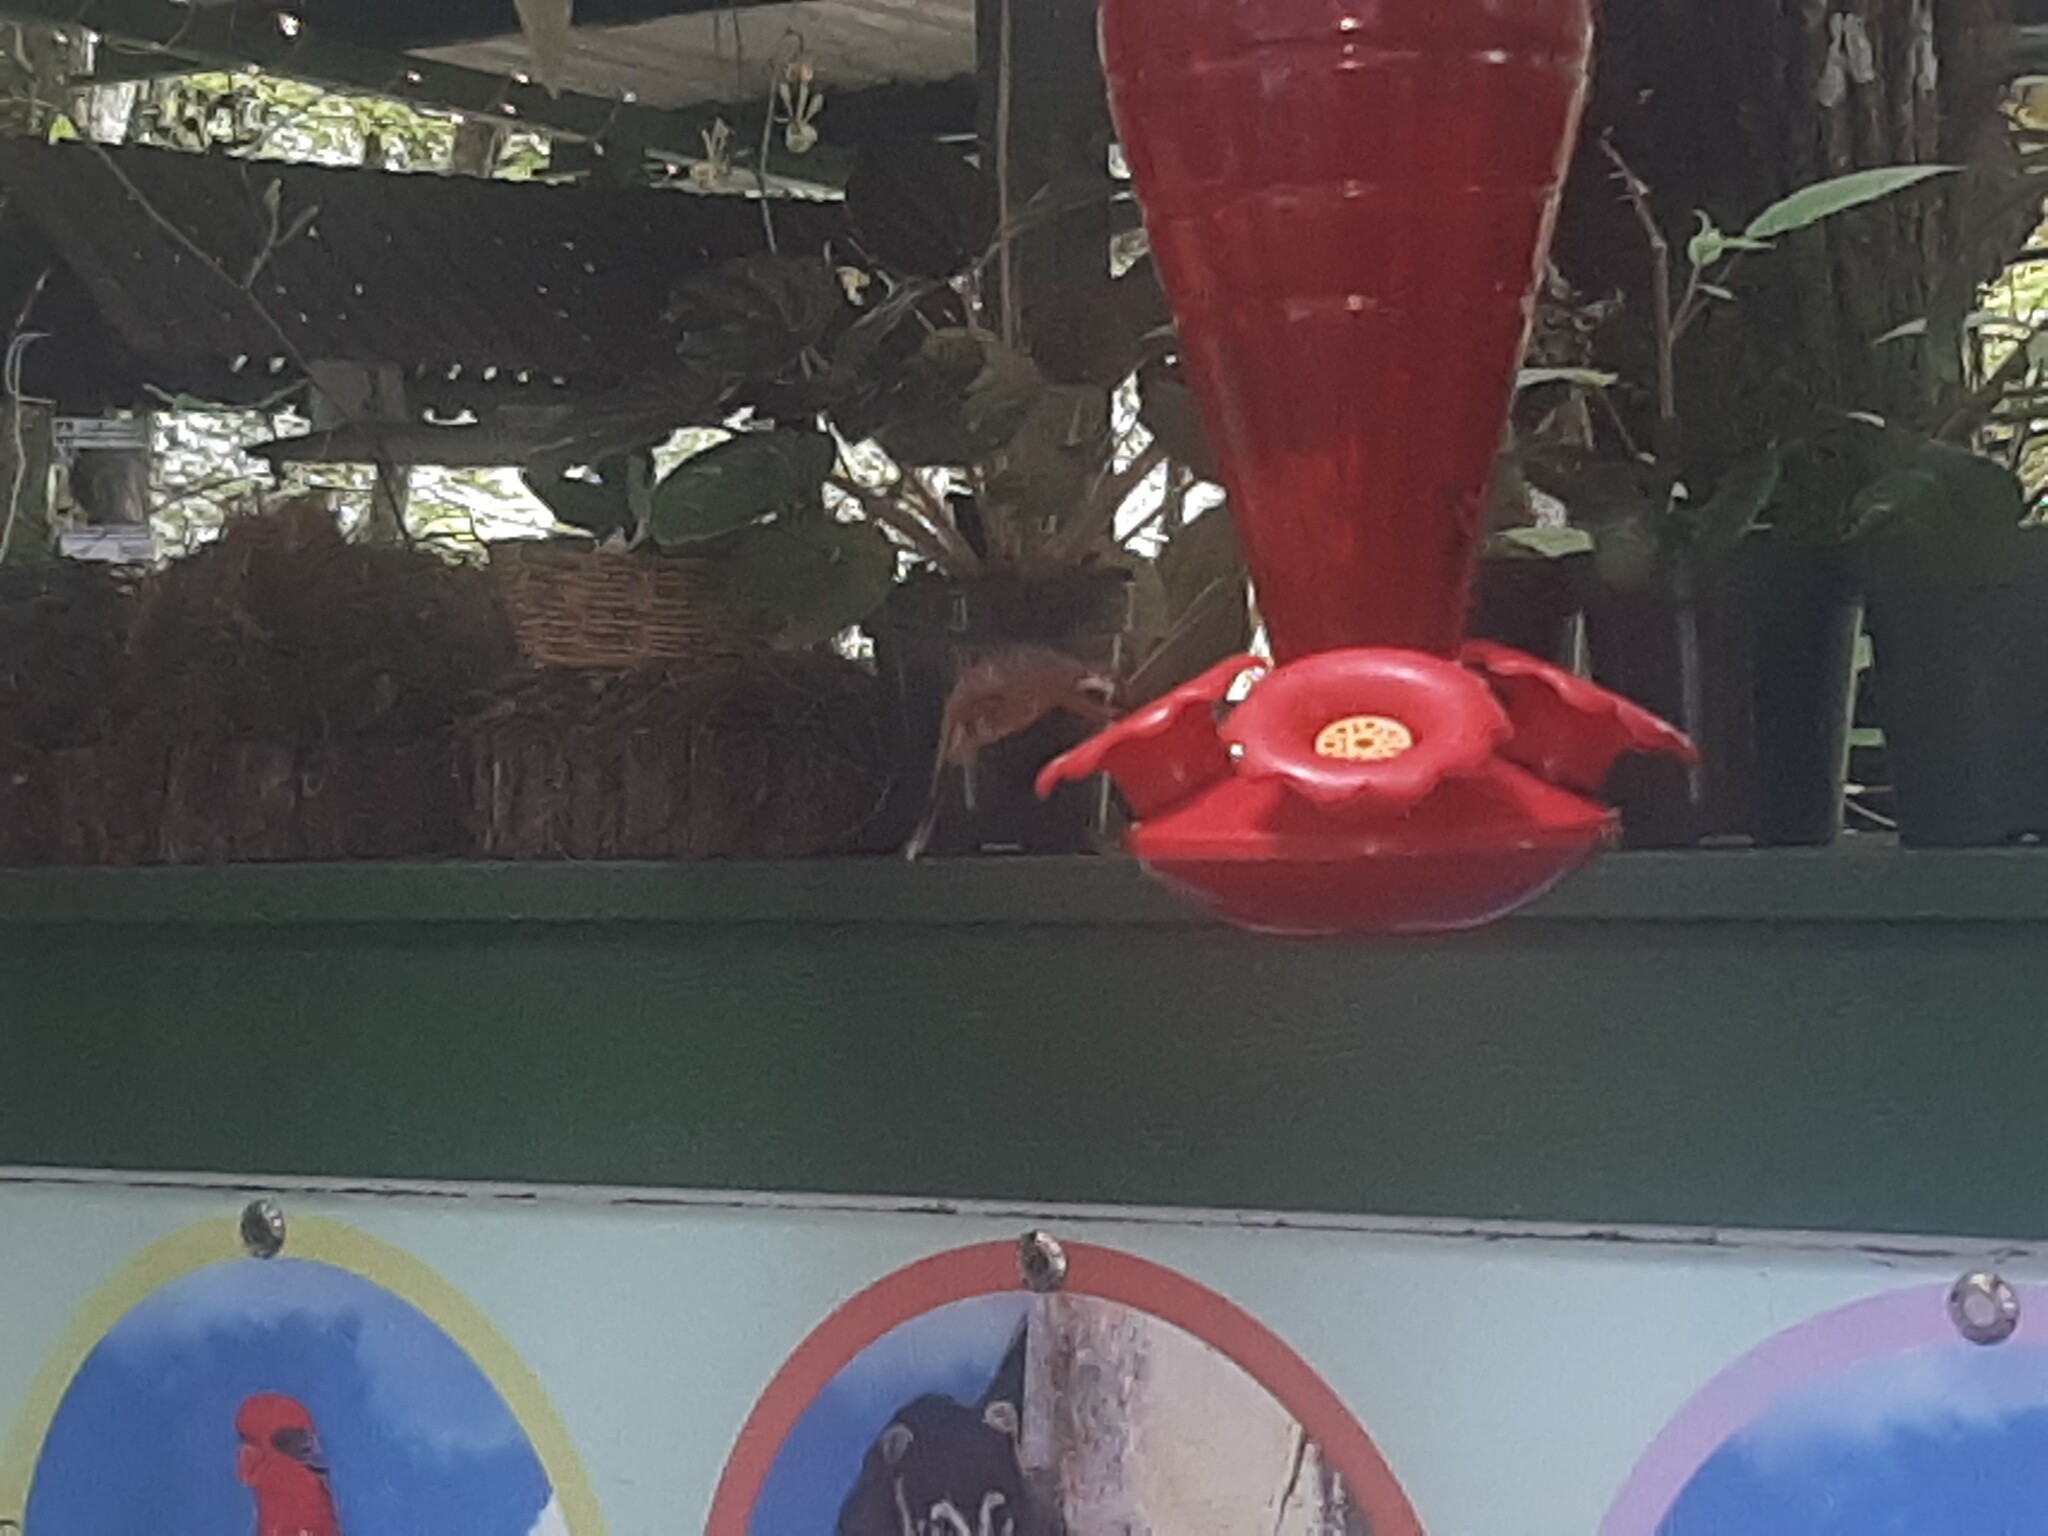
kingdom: Animalia
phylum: Chordata
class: Aves
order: Apodiformes
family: Trochilidae
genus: Phaethornis
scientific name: Phaethornis striigularis
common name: Stripe-throated hermit
